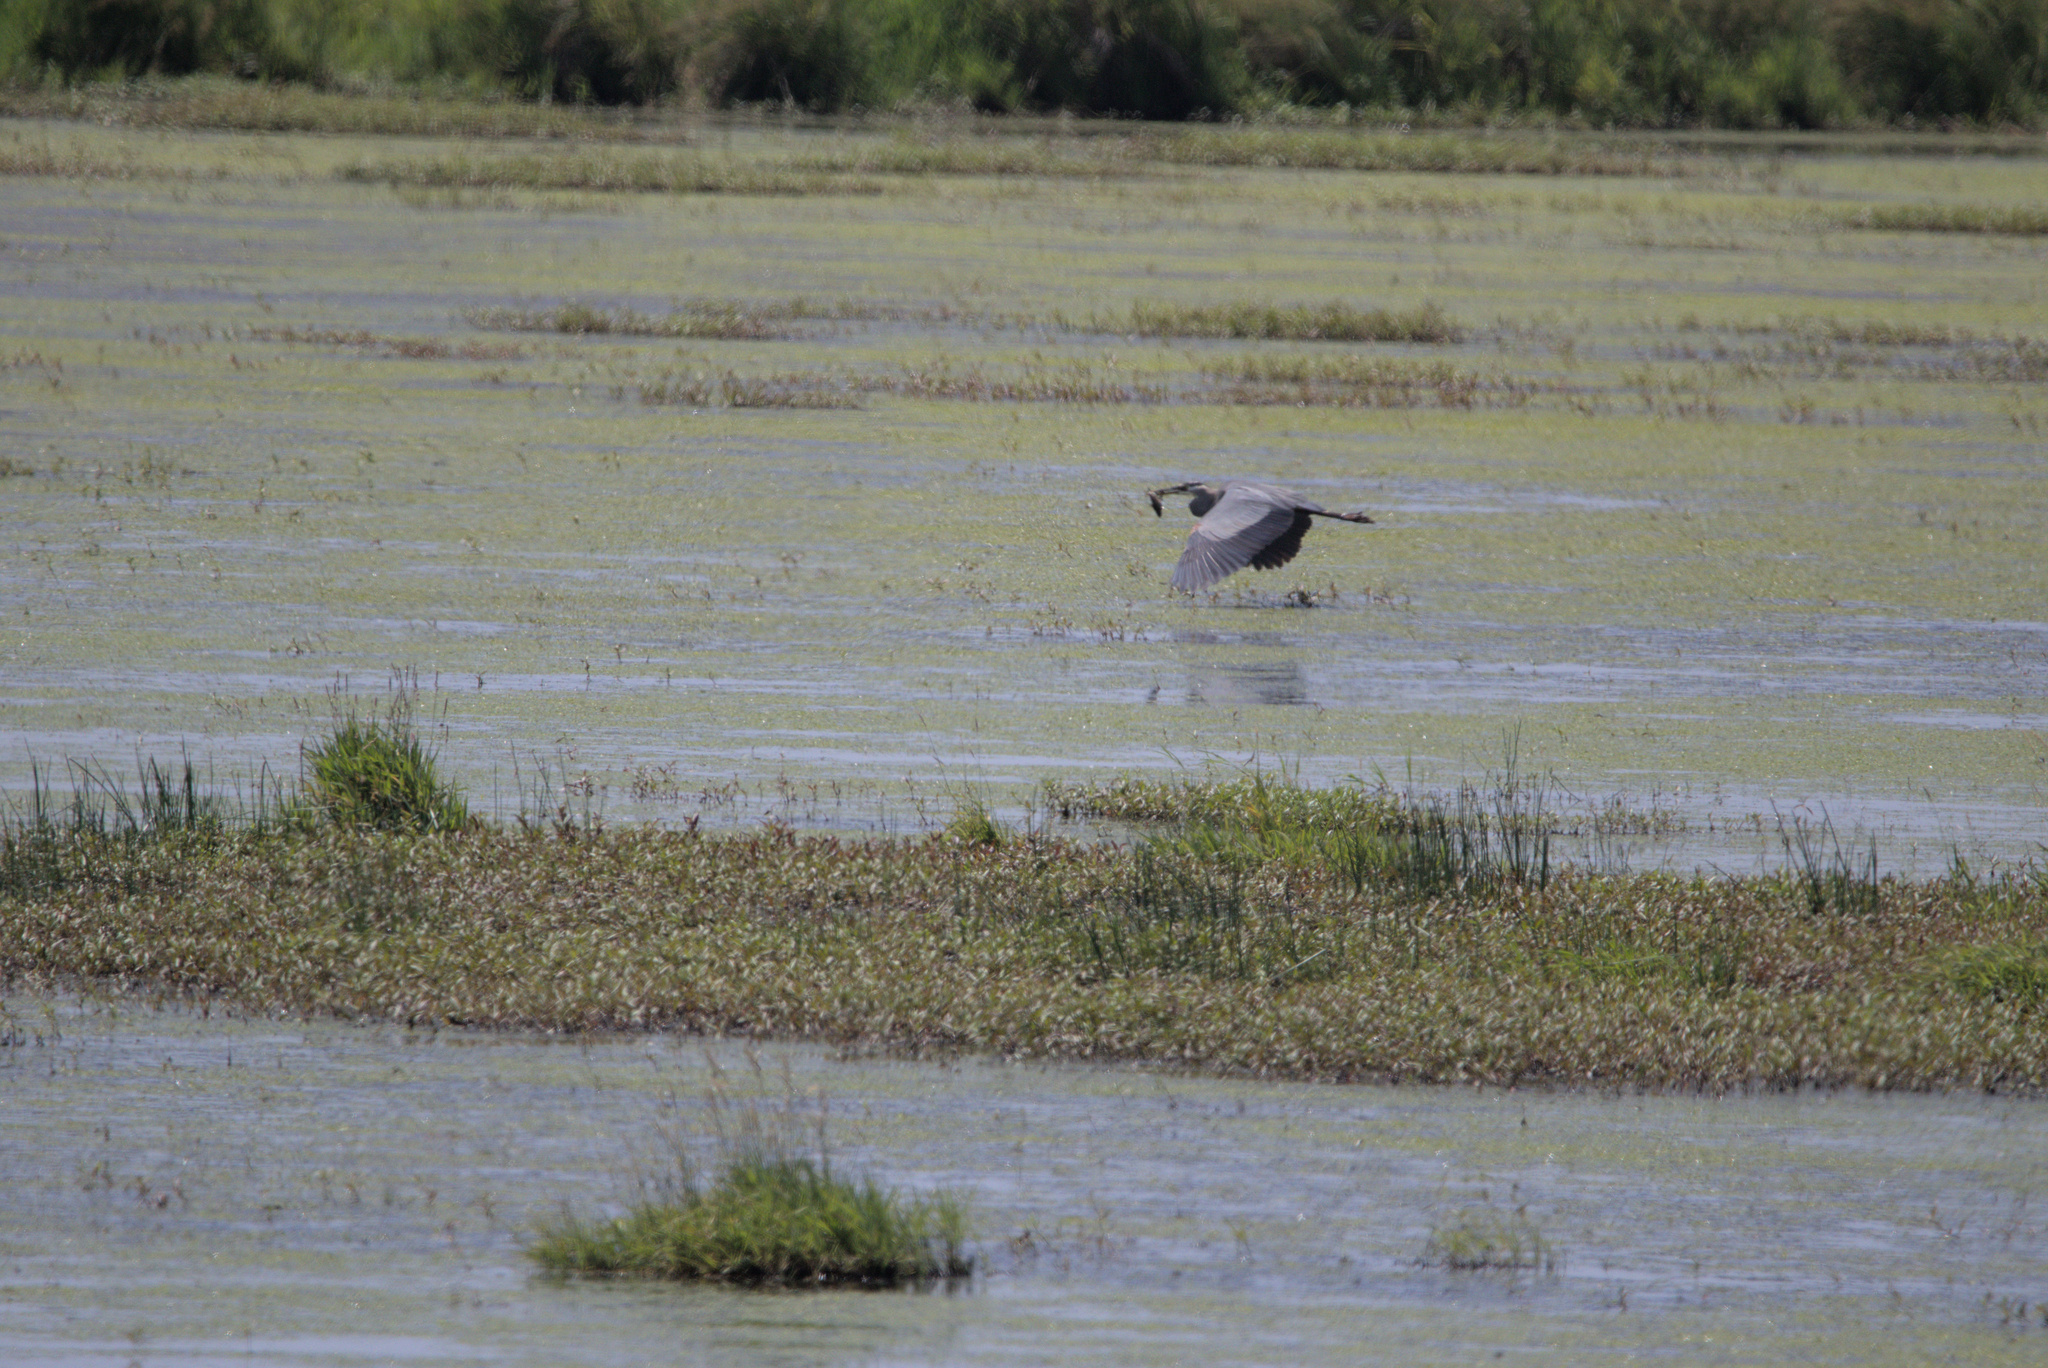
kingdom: Animalia
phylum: Chordata
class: Aves
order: Pelecaniformes
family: Ardeidae
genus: Ardea
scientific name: Ardea herodias
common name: Great blue heron
